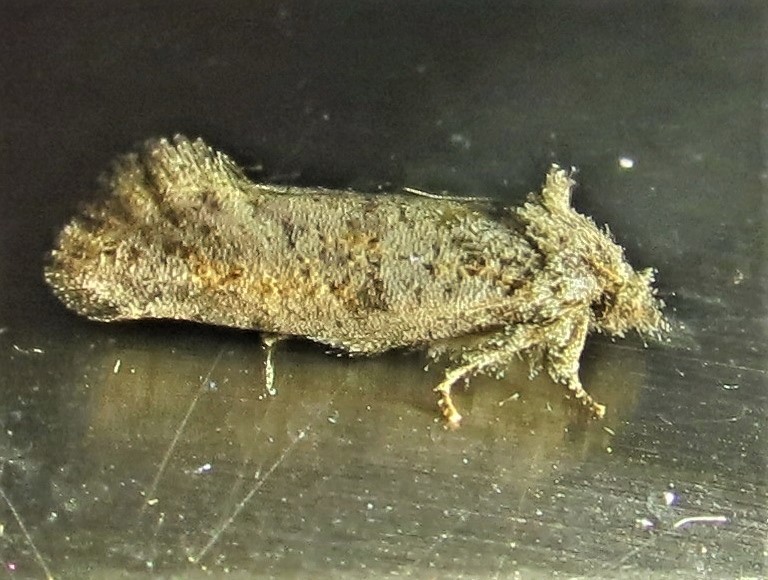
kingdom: Animalia
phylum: Arthropoda
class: Insecta
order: Lepidoptera
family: Tineidae
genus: Acrolophus
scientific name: Acrolophus piger
